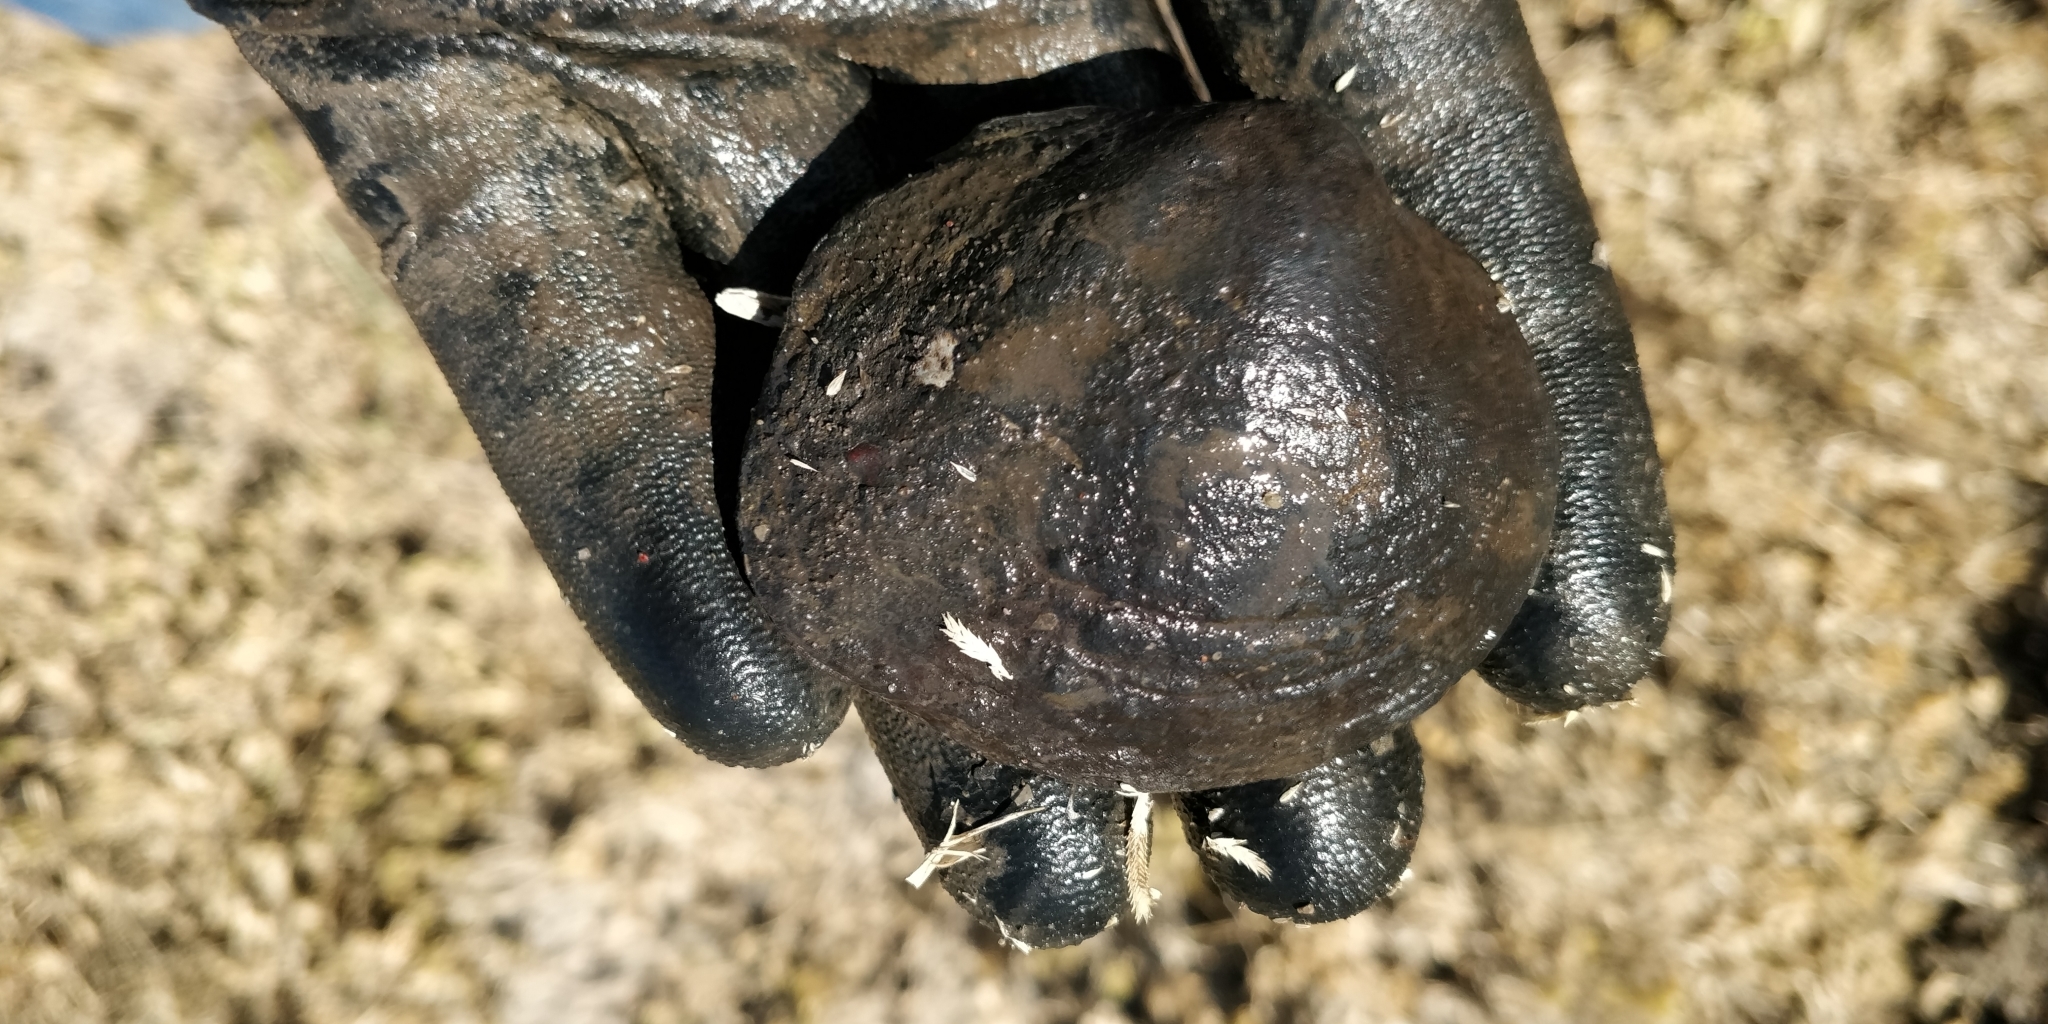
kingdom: Animalia
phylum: Mollusca
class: Bivalvia
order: Unionida
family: Unionidae
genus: Quadrula
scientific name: Quadrula quadrula
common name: Mapleleaf
